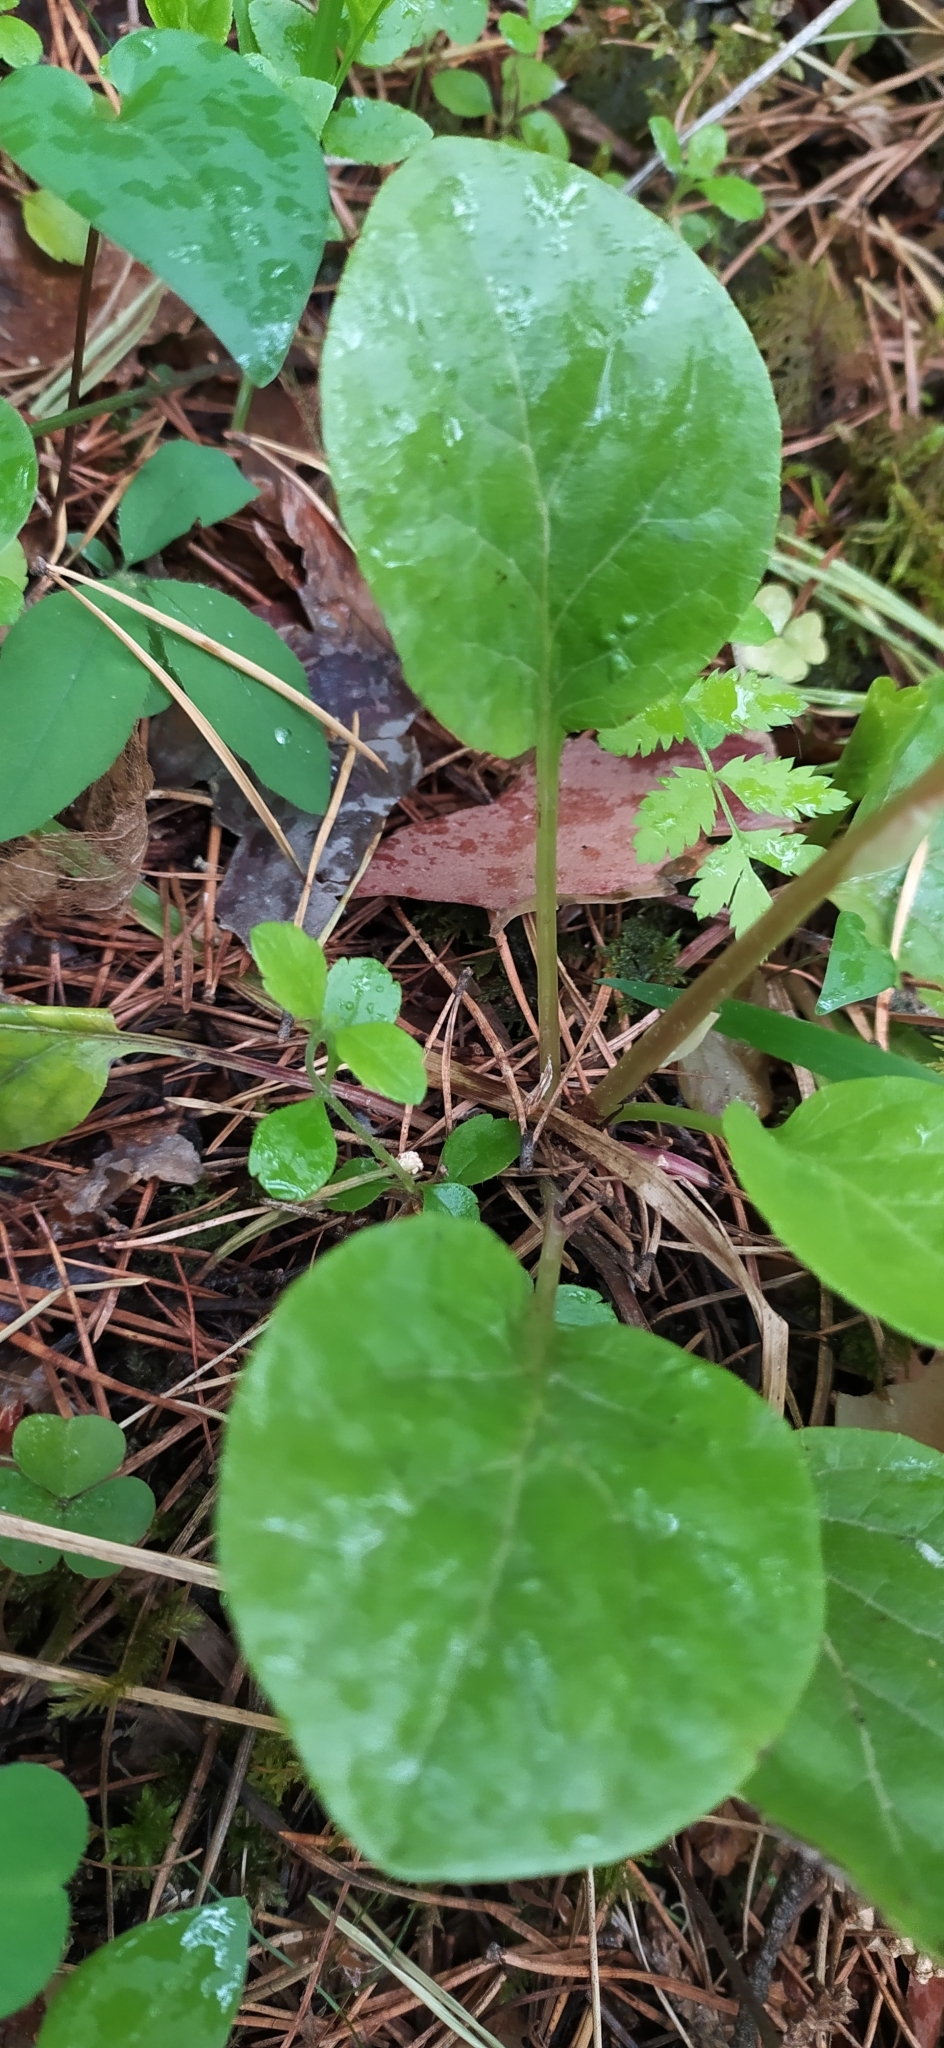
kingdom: Plantae
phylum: Tracheophyta
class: Magnoliopsida
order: Ericales
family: Ericaceae
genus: Pyrola
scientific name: Pyrola rotundifolia
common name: Round-leaved wintergreen
